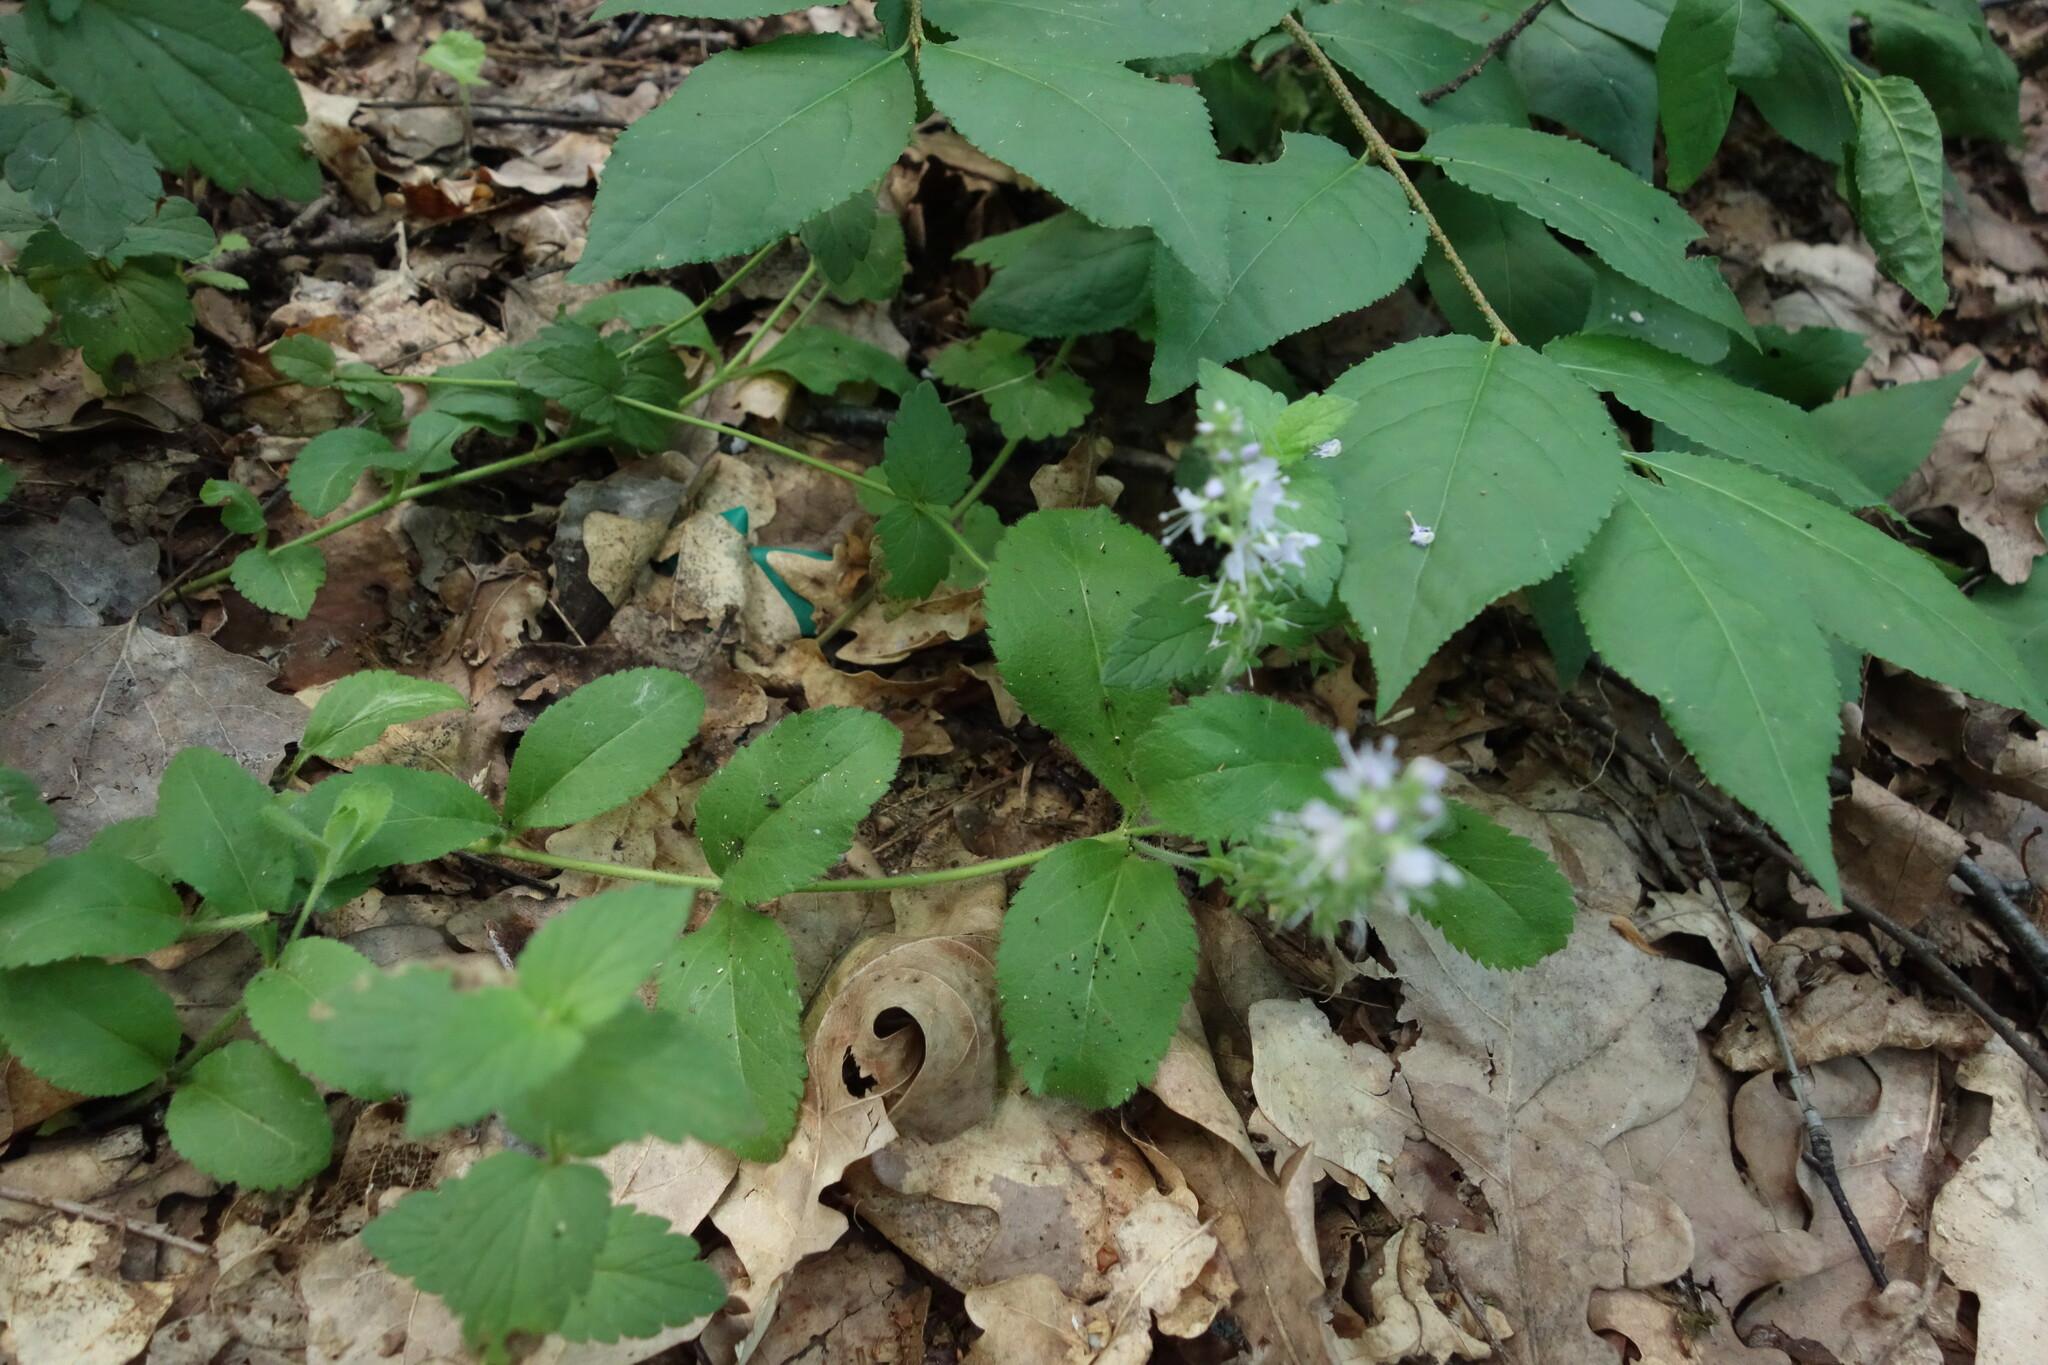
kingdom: Plantae
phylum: Tracheophyta
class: Magnoliopsida
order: Lamiales
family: Plantaginaceae
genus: Veronica
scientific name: Veronica officinalis
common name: Common speedwell
